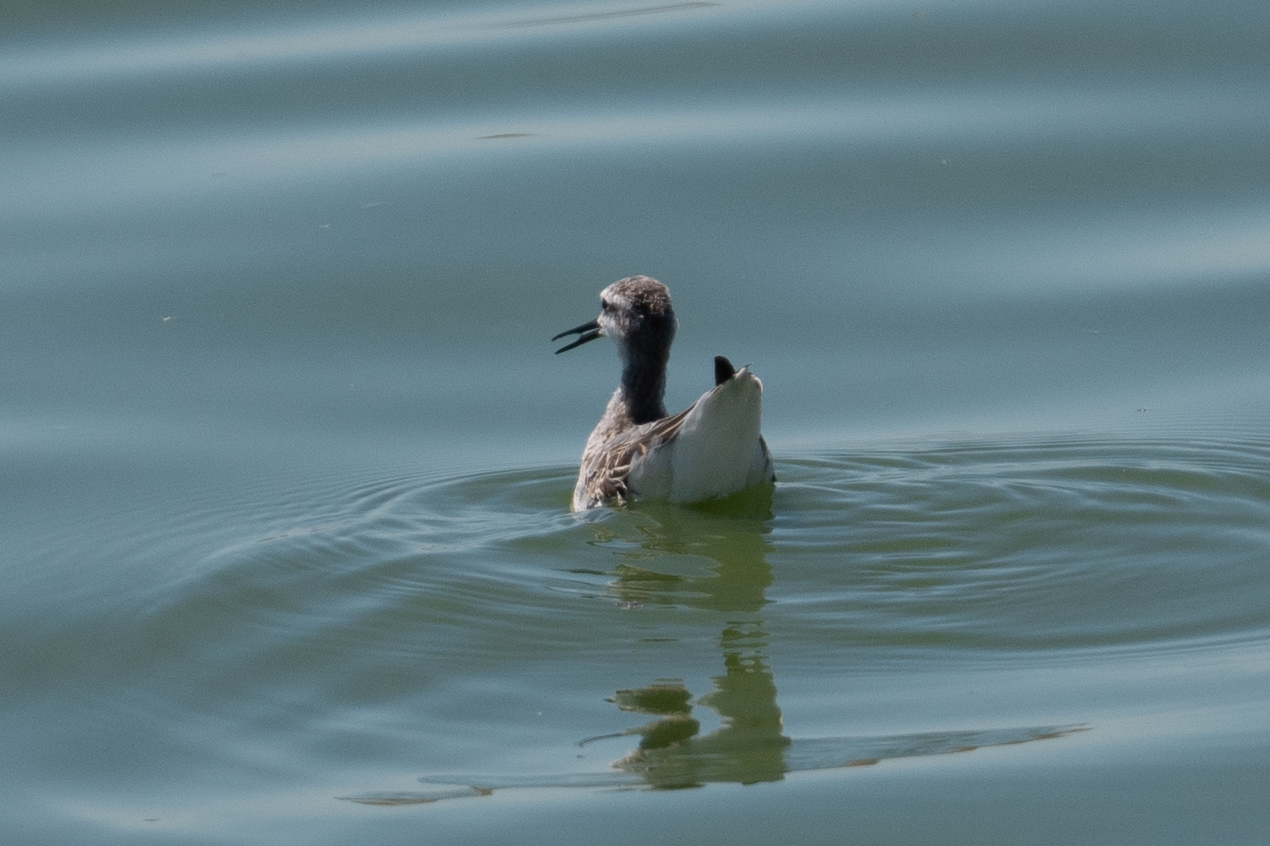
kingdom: Animalia
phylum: Chordata
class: Aves
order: Charadriiformes
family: Scolopacidae
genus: Phalaropus
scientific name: Phalaropus tricolor
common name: Wilson's phalarope
